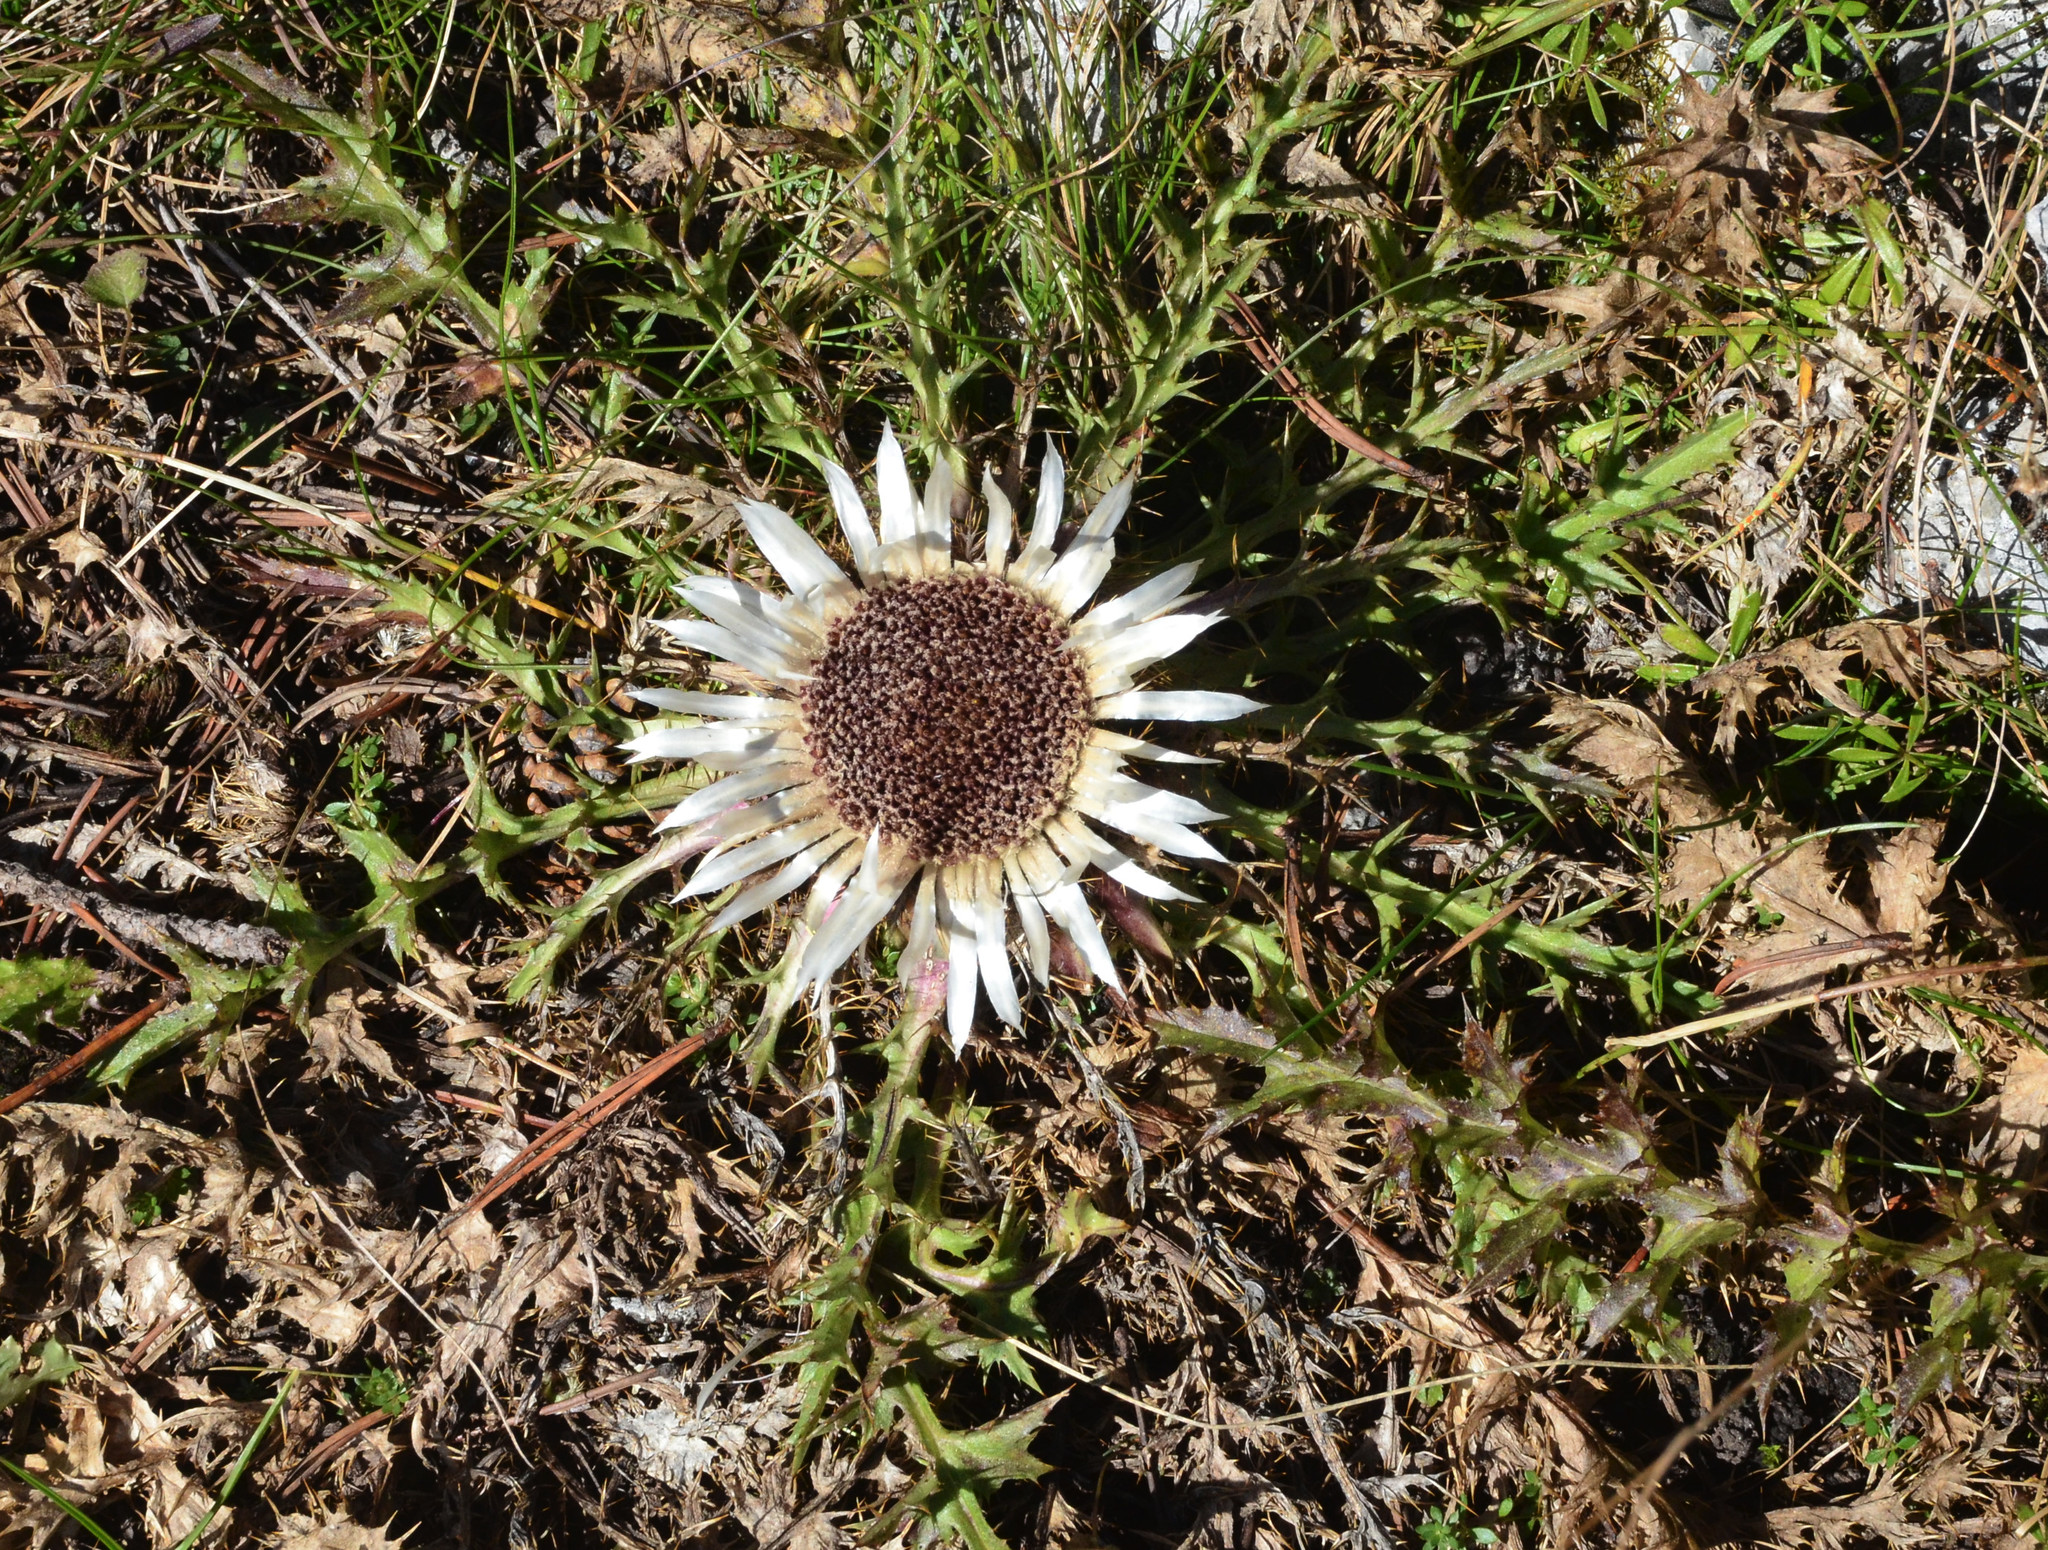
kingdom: Plantae
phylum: Tracheophyta
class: Magnoliopsida
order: Asterales
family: Asteraceae
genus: Carlina
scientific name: Carlina acaulis
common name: Stemless carline thistle
